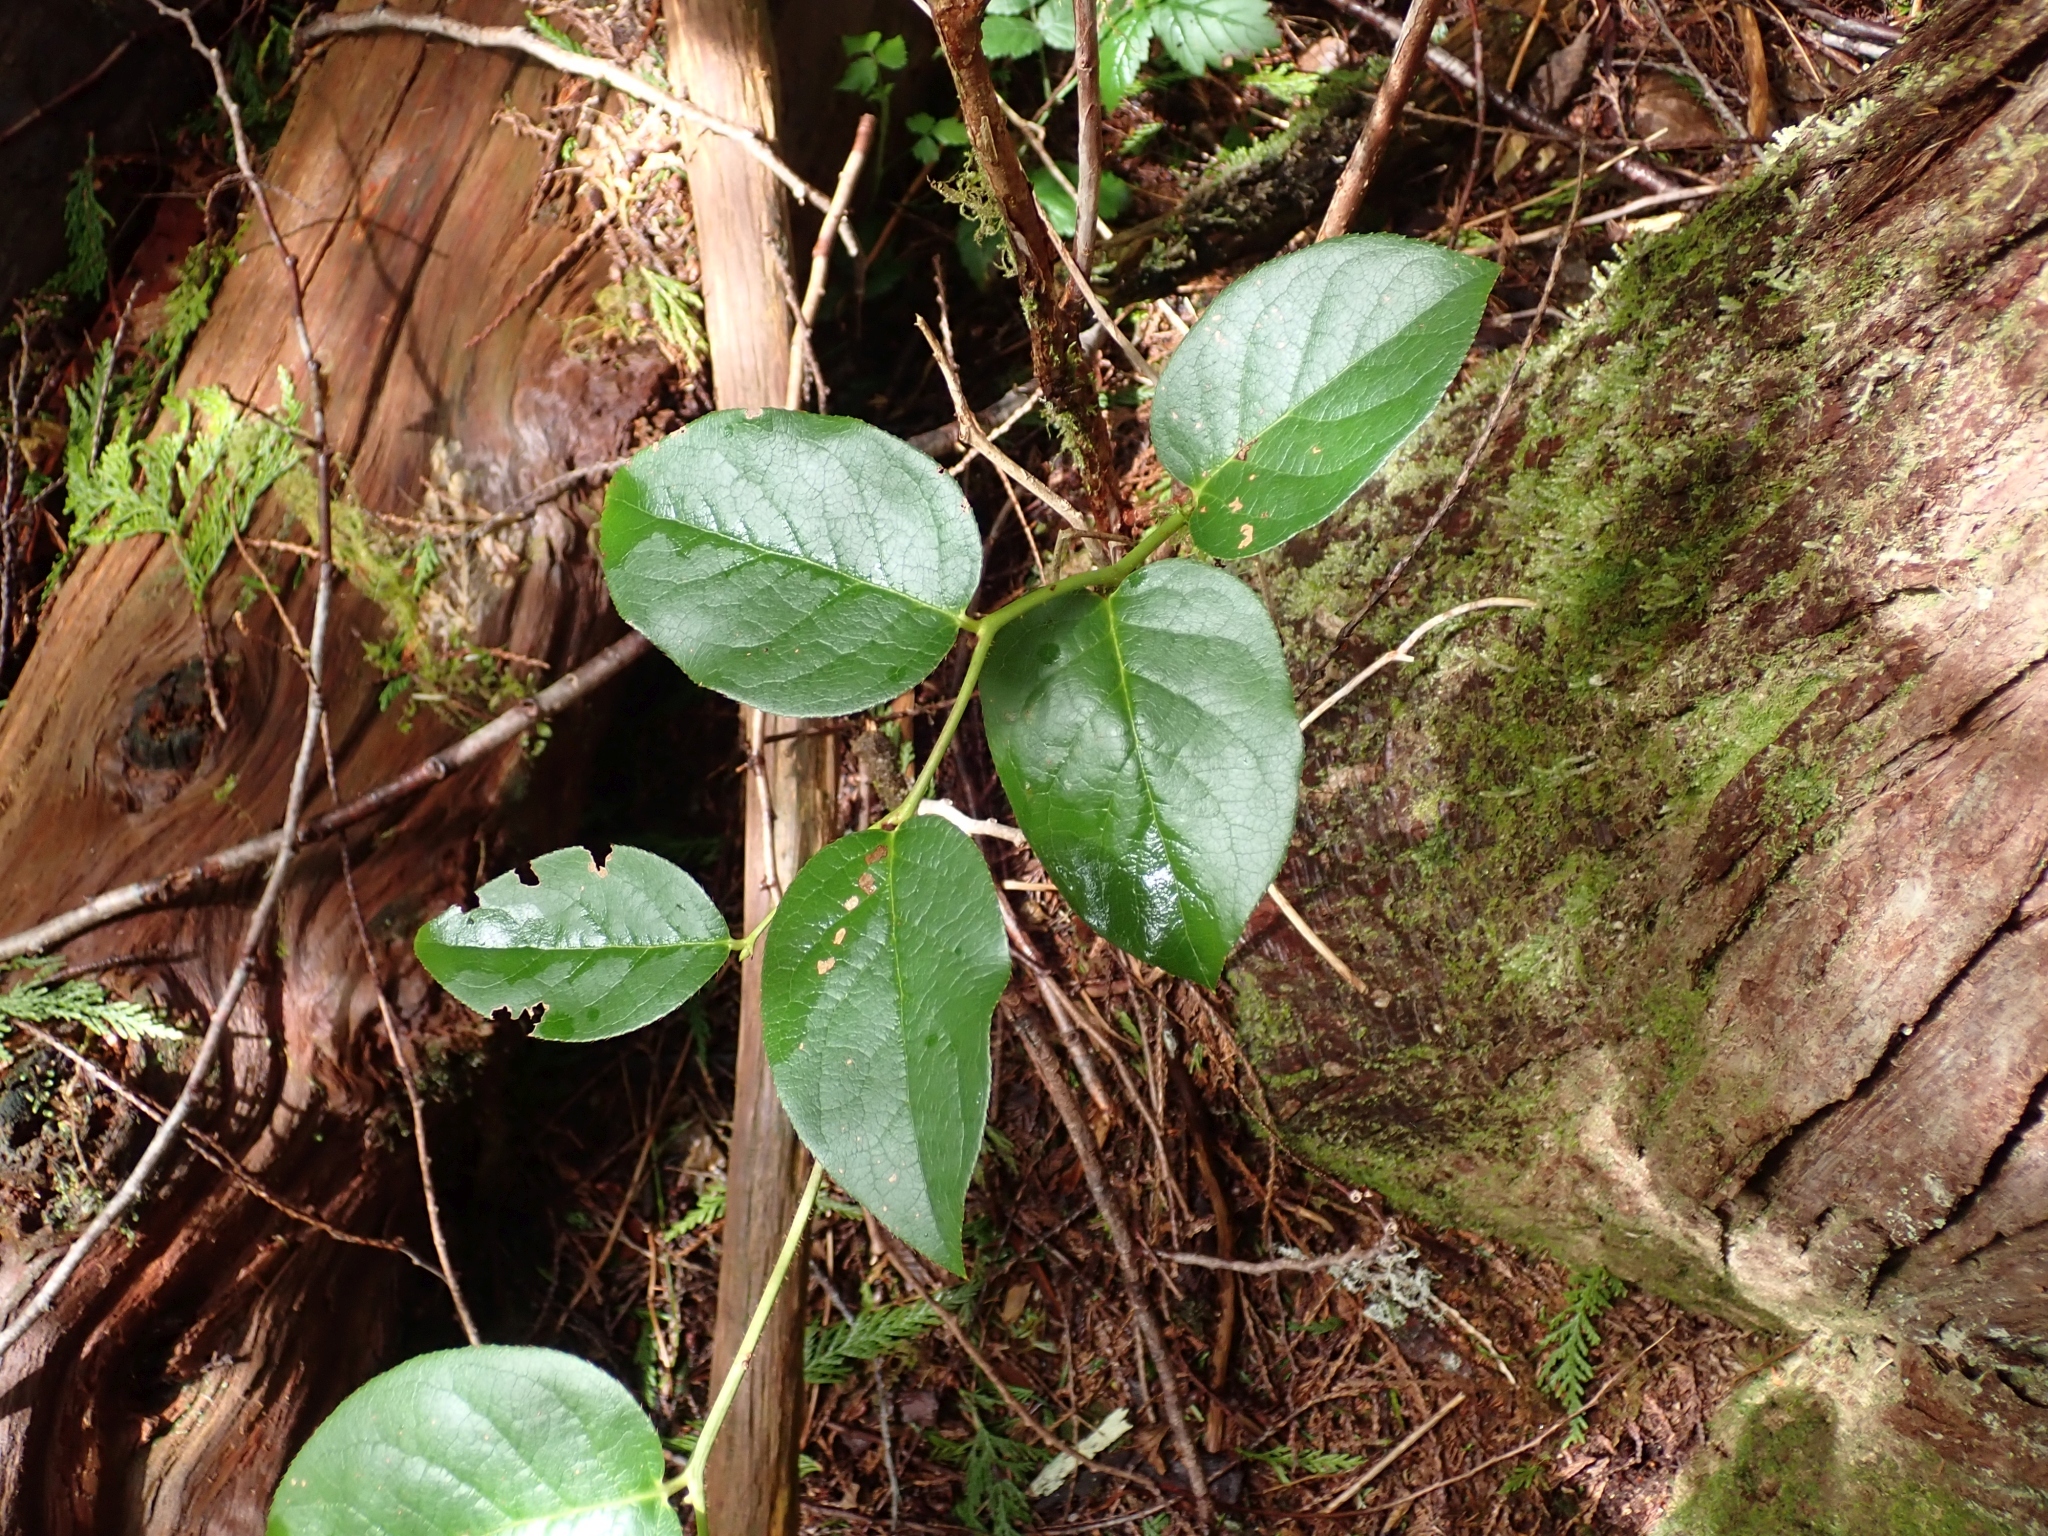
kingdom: Plantae
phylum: Tracheophyta
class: Magnoliopsida
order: Ericales
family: Ericaceae
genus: Gaultheria
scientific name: Gaultheria shallon
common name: Shallon
